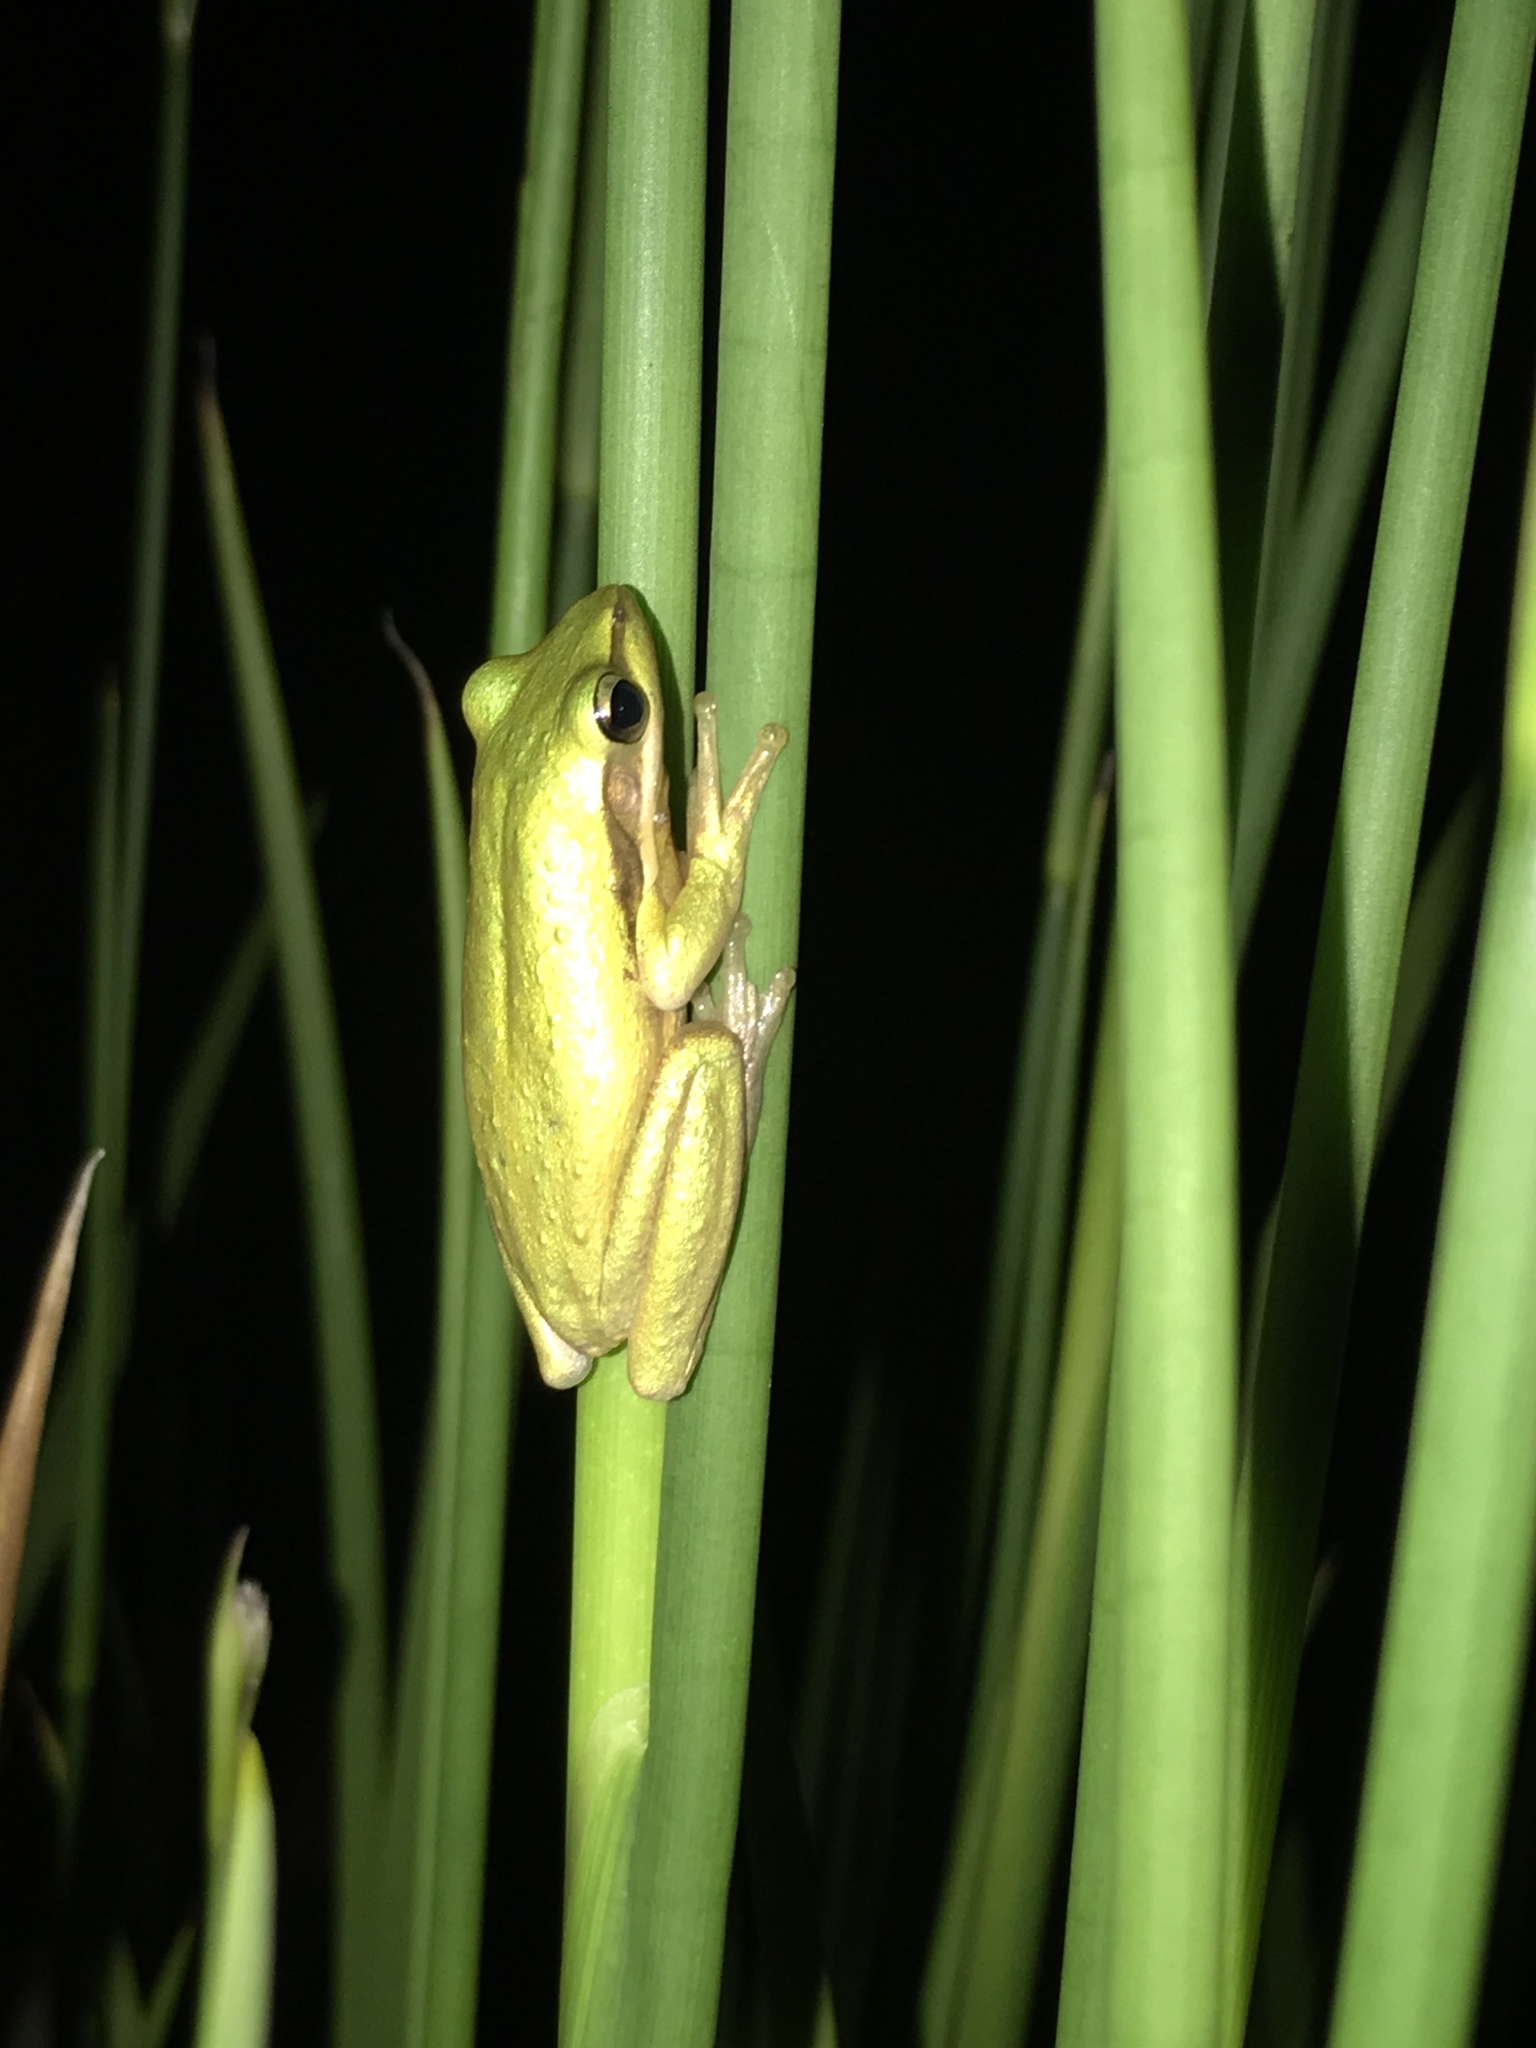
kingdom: Animalia
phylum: Chordata
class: Amphibia
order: Anura
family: Pelodryadidae
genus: Litoria
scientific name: Litoria adelaidensis
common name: Slender tree frog
